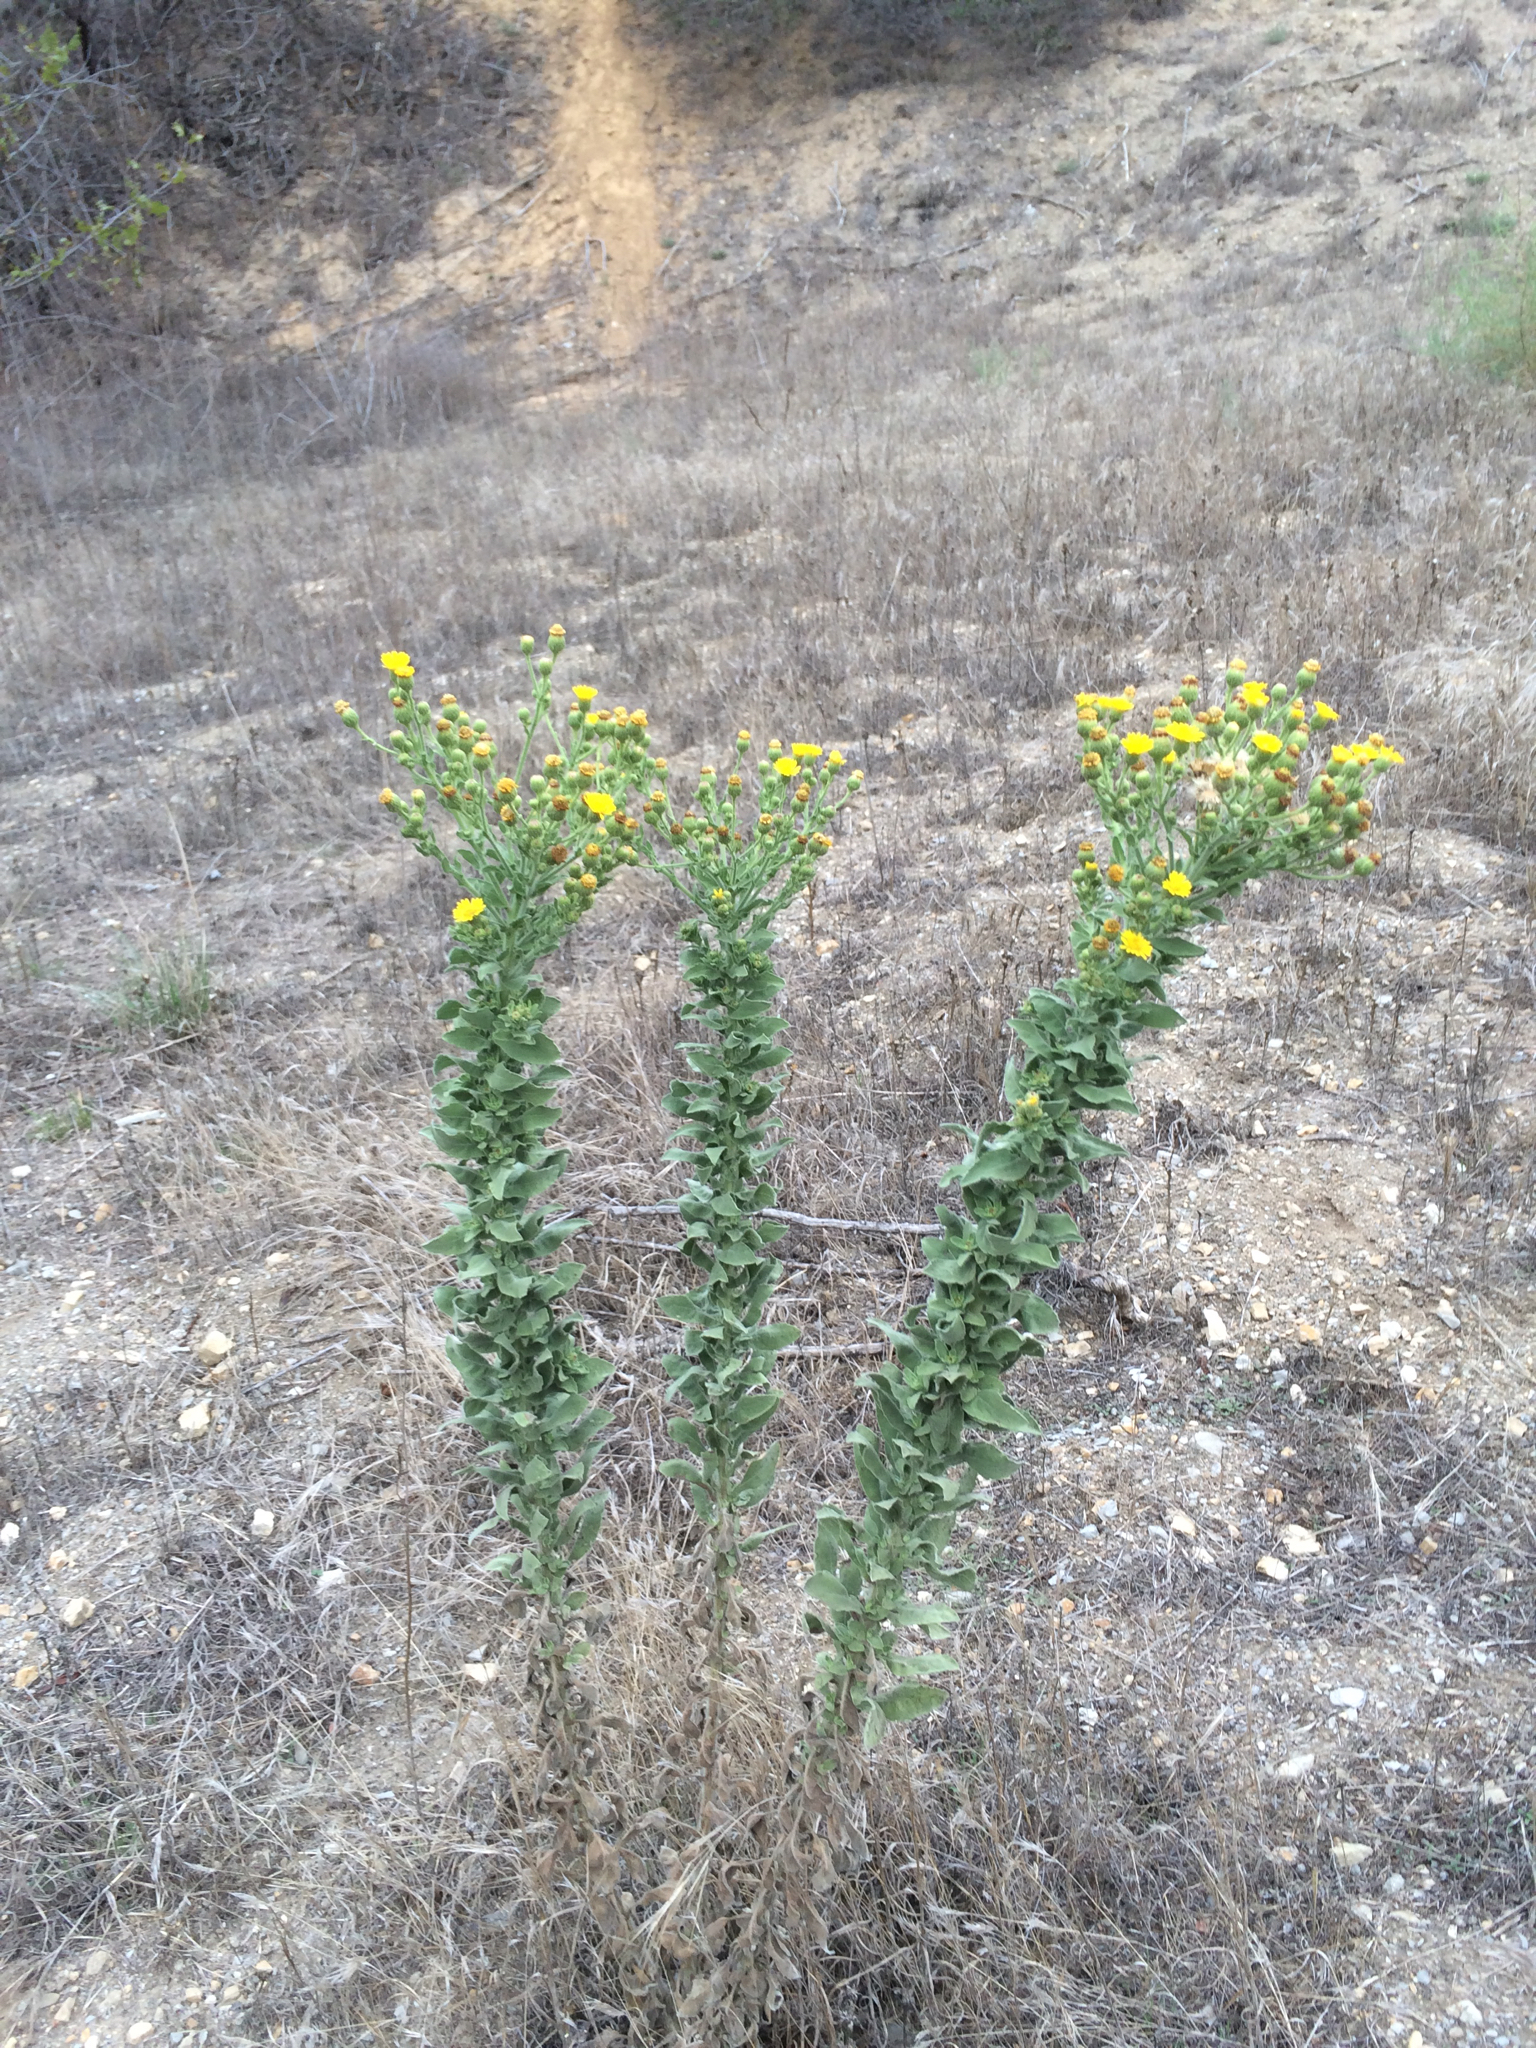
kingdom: Plantae
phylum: Tracheophyta
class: Magnoliopsida
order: Asterales
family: Asteraceae
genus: Heterotheca
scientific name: Heterotheca grandiflora
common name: Telegraphweed
